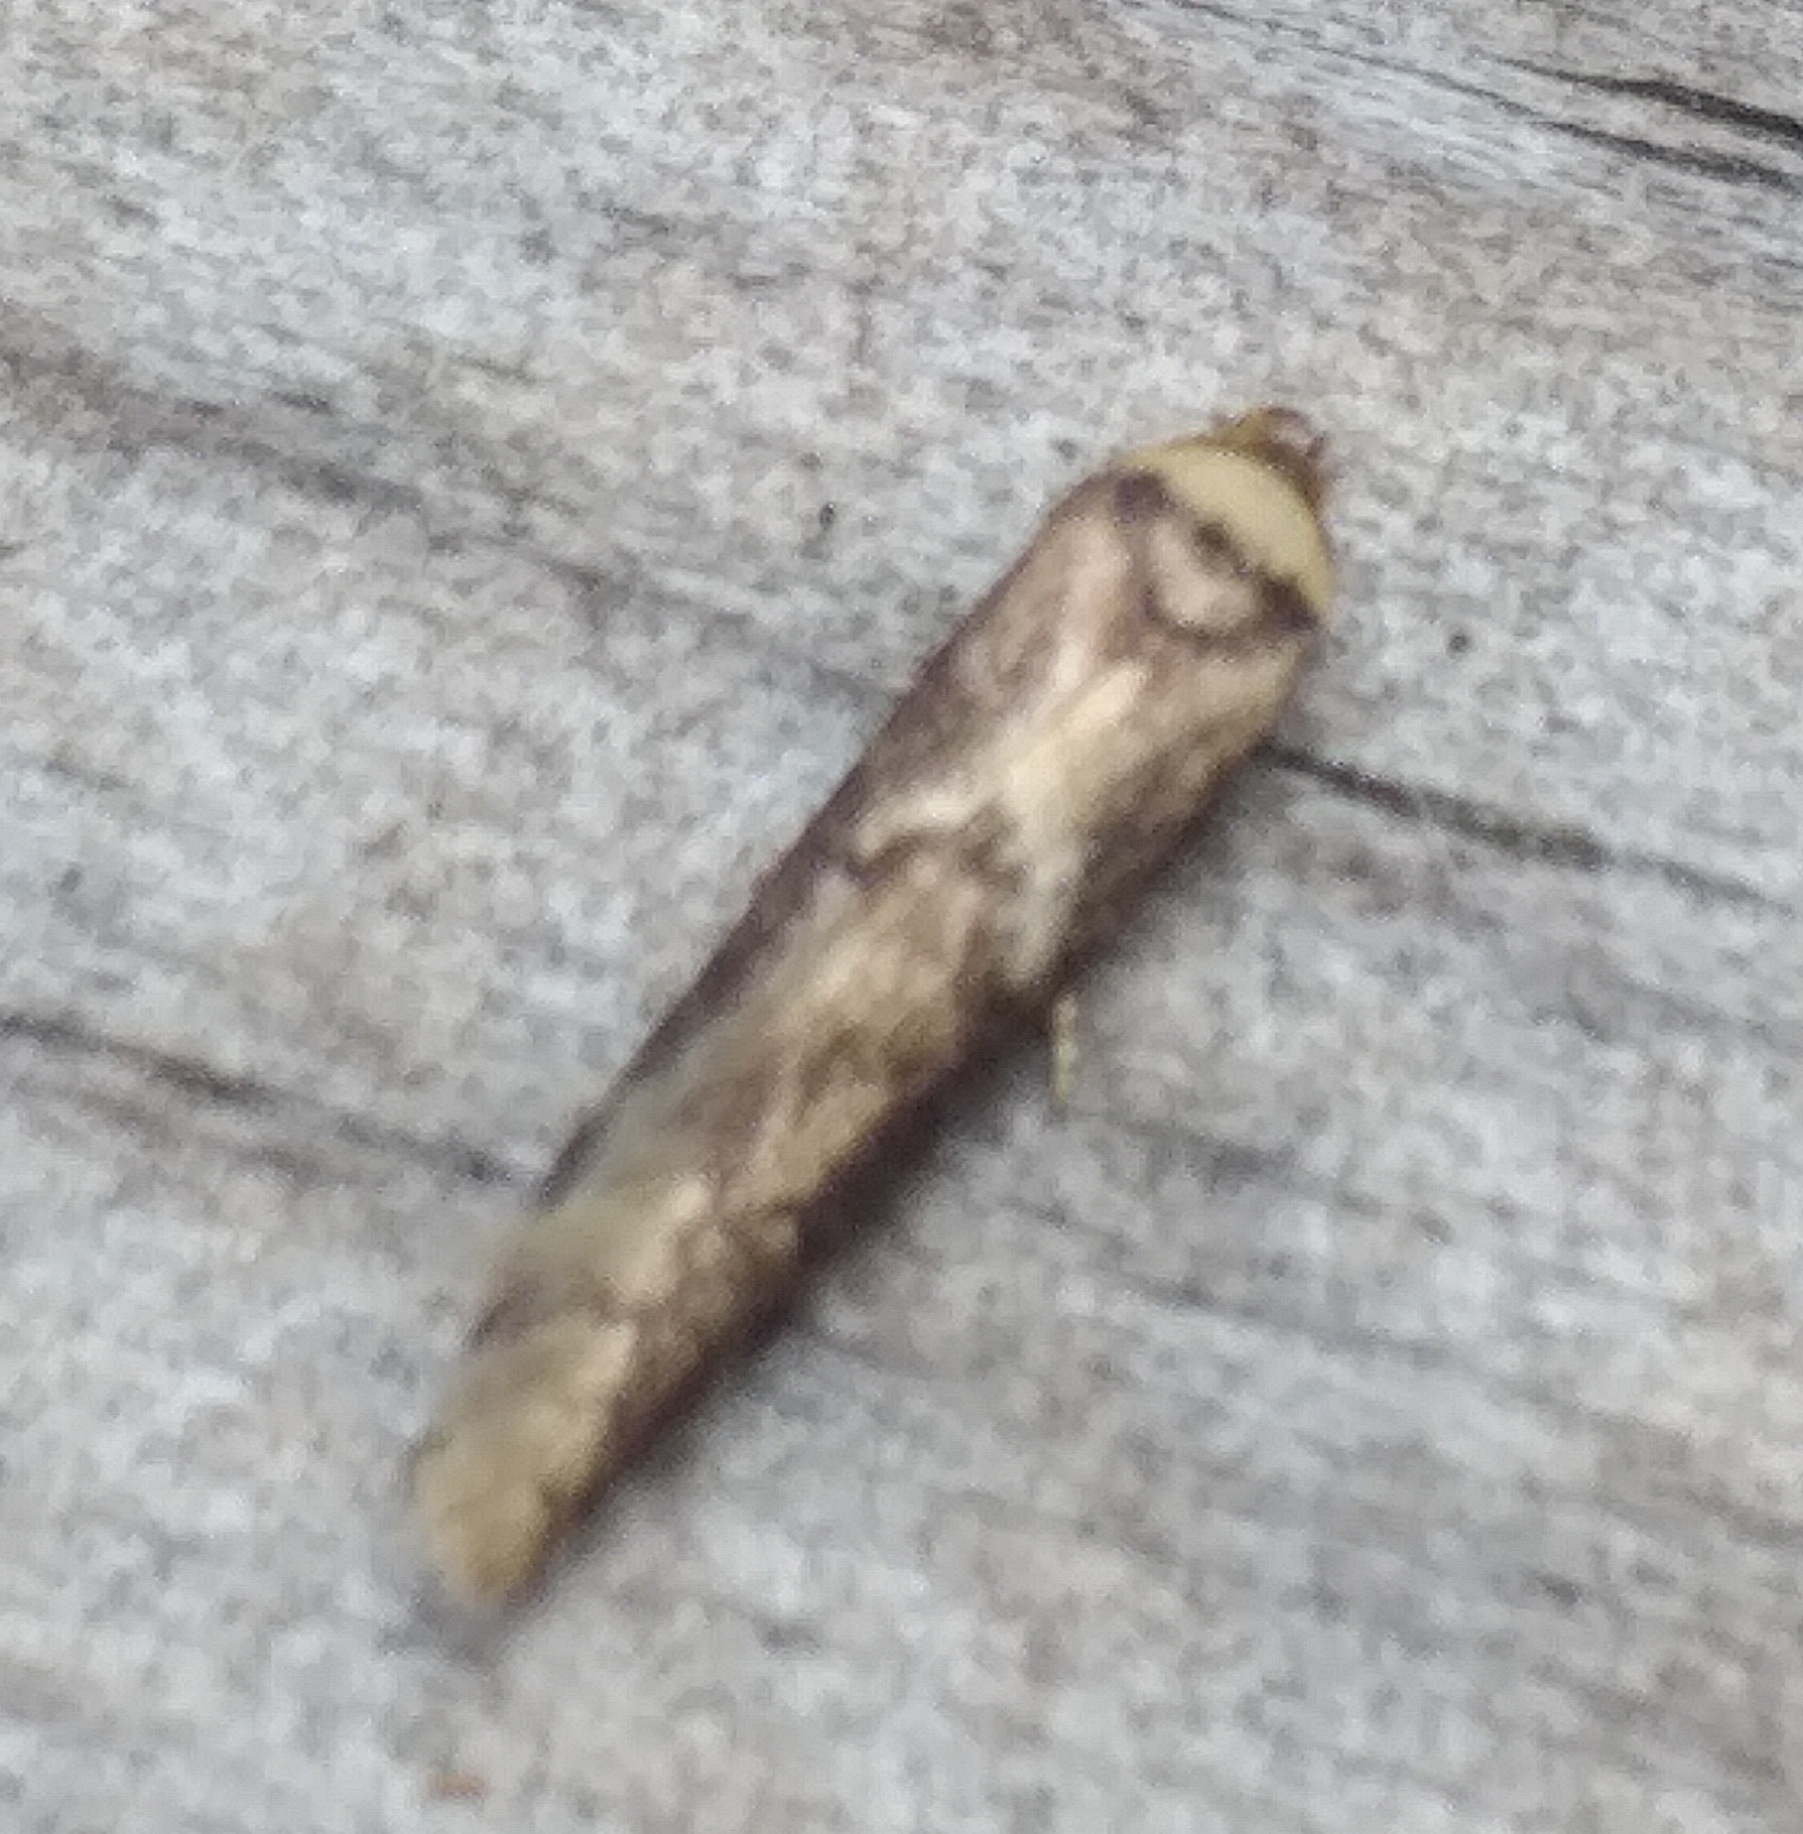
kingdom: Animalia
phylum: Arthropoda
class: Insecta
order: Lepidoptera
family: Blastobasidae
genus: Blastobasis
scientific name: Blastobasis adustella
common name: Dingy dowd
